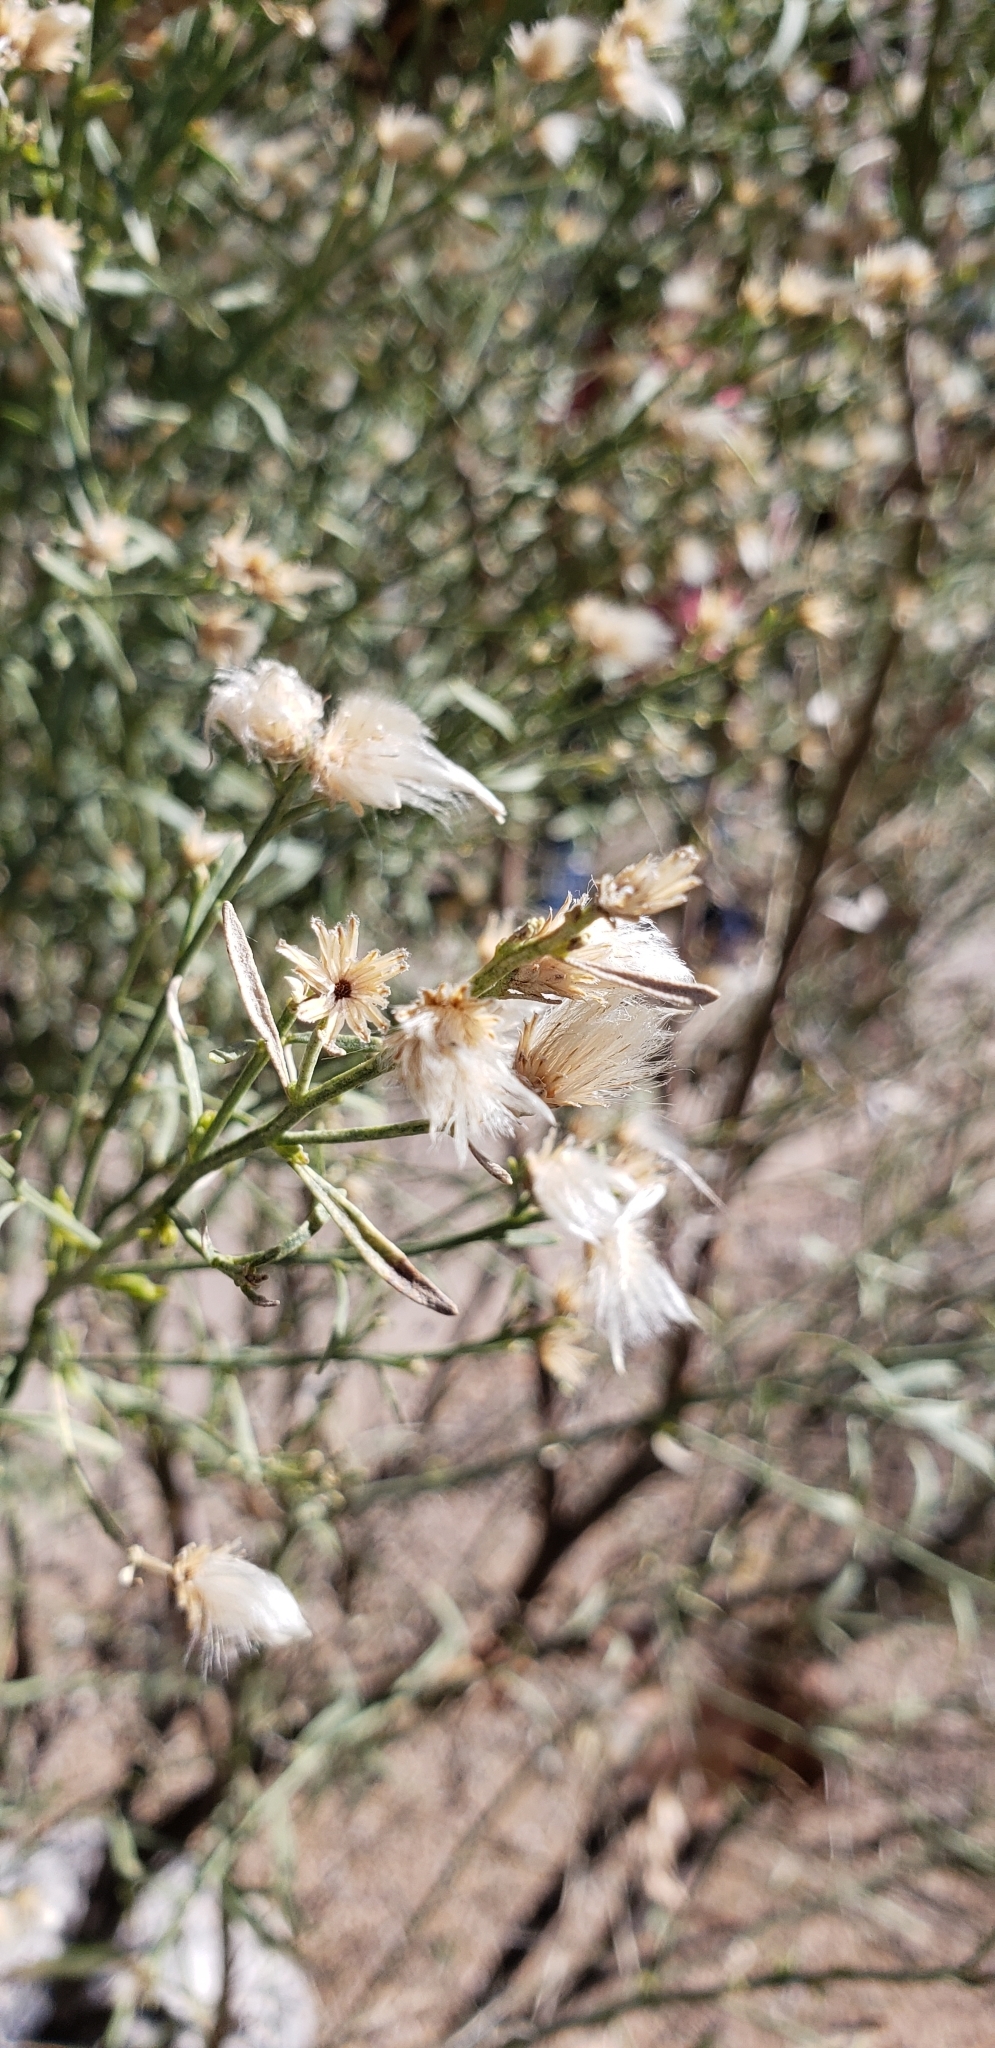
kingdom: Plantae
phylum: Tracheophyta
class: Magnoliopsida
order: Asterales
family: Asteraceae
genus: Baccharis
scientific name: Baccharis sarothroides
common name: Desert-broom
